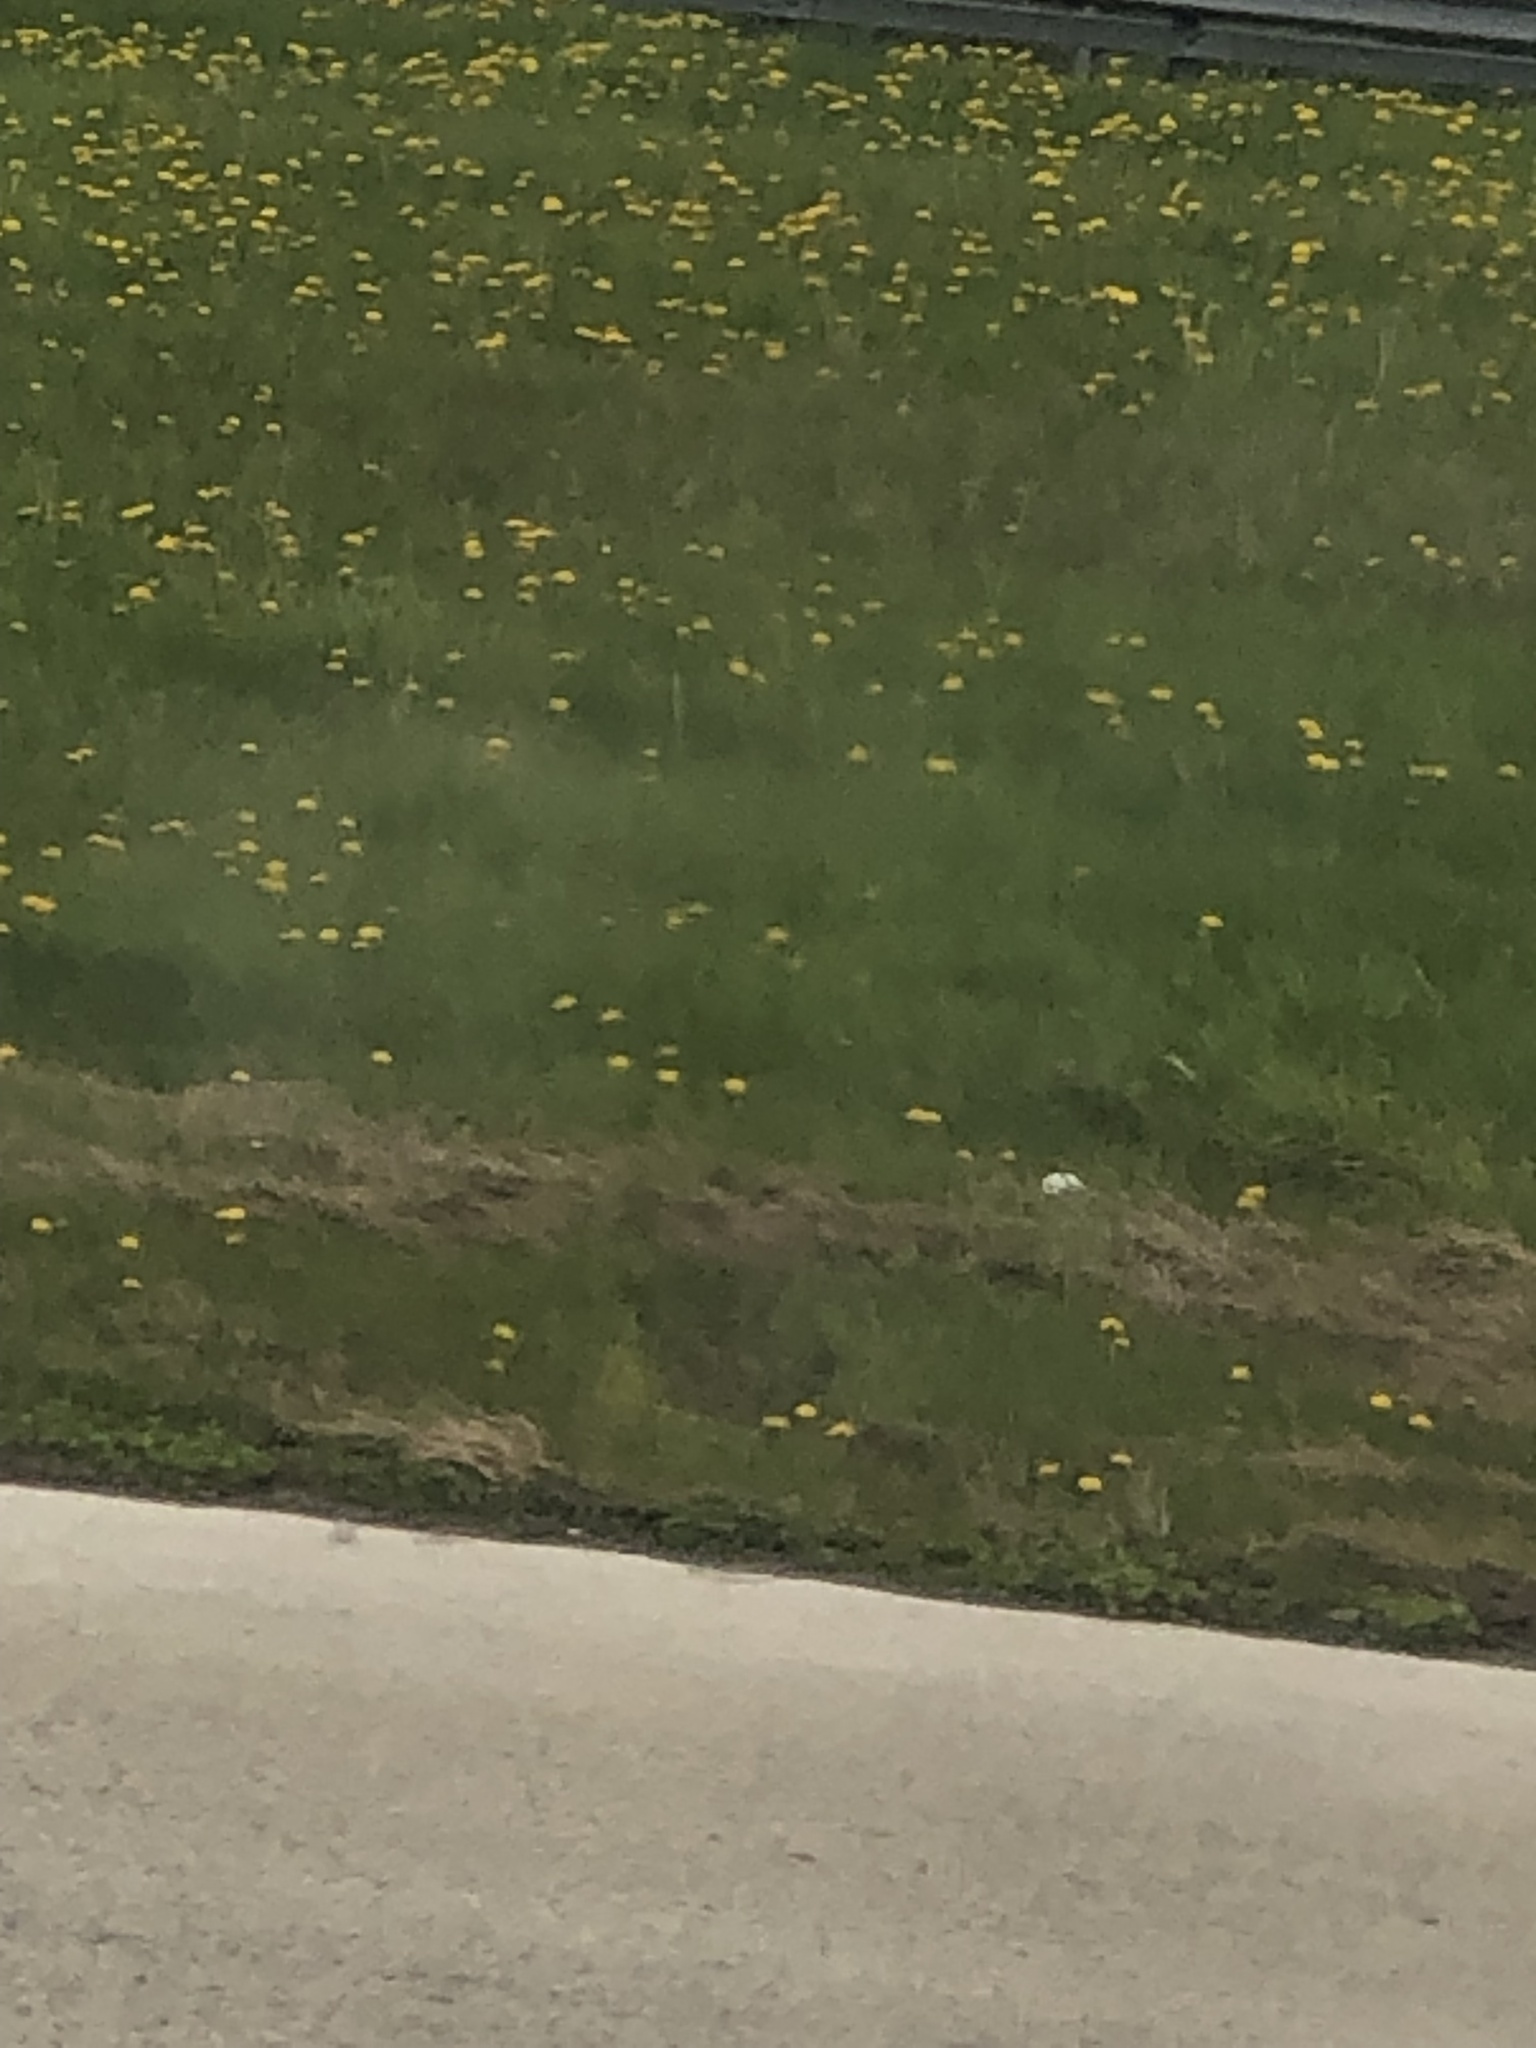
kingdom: Plantae
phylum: Tracheophyta
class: Magnoliopsida
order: Asterales
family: Asteraceae
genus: Taraxacum
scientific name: Taraxacum officinale
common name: Common dandelion
